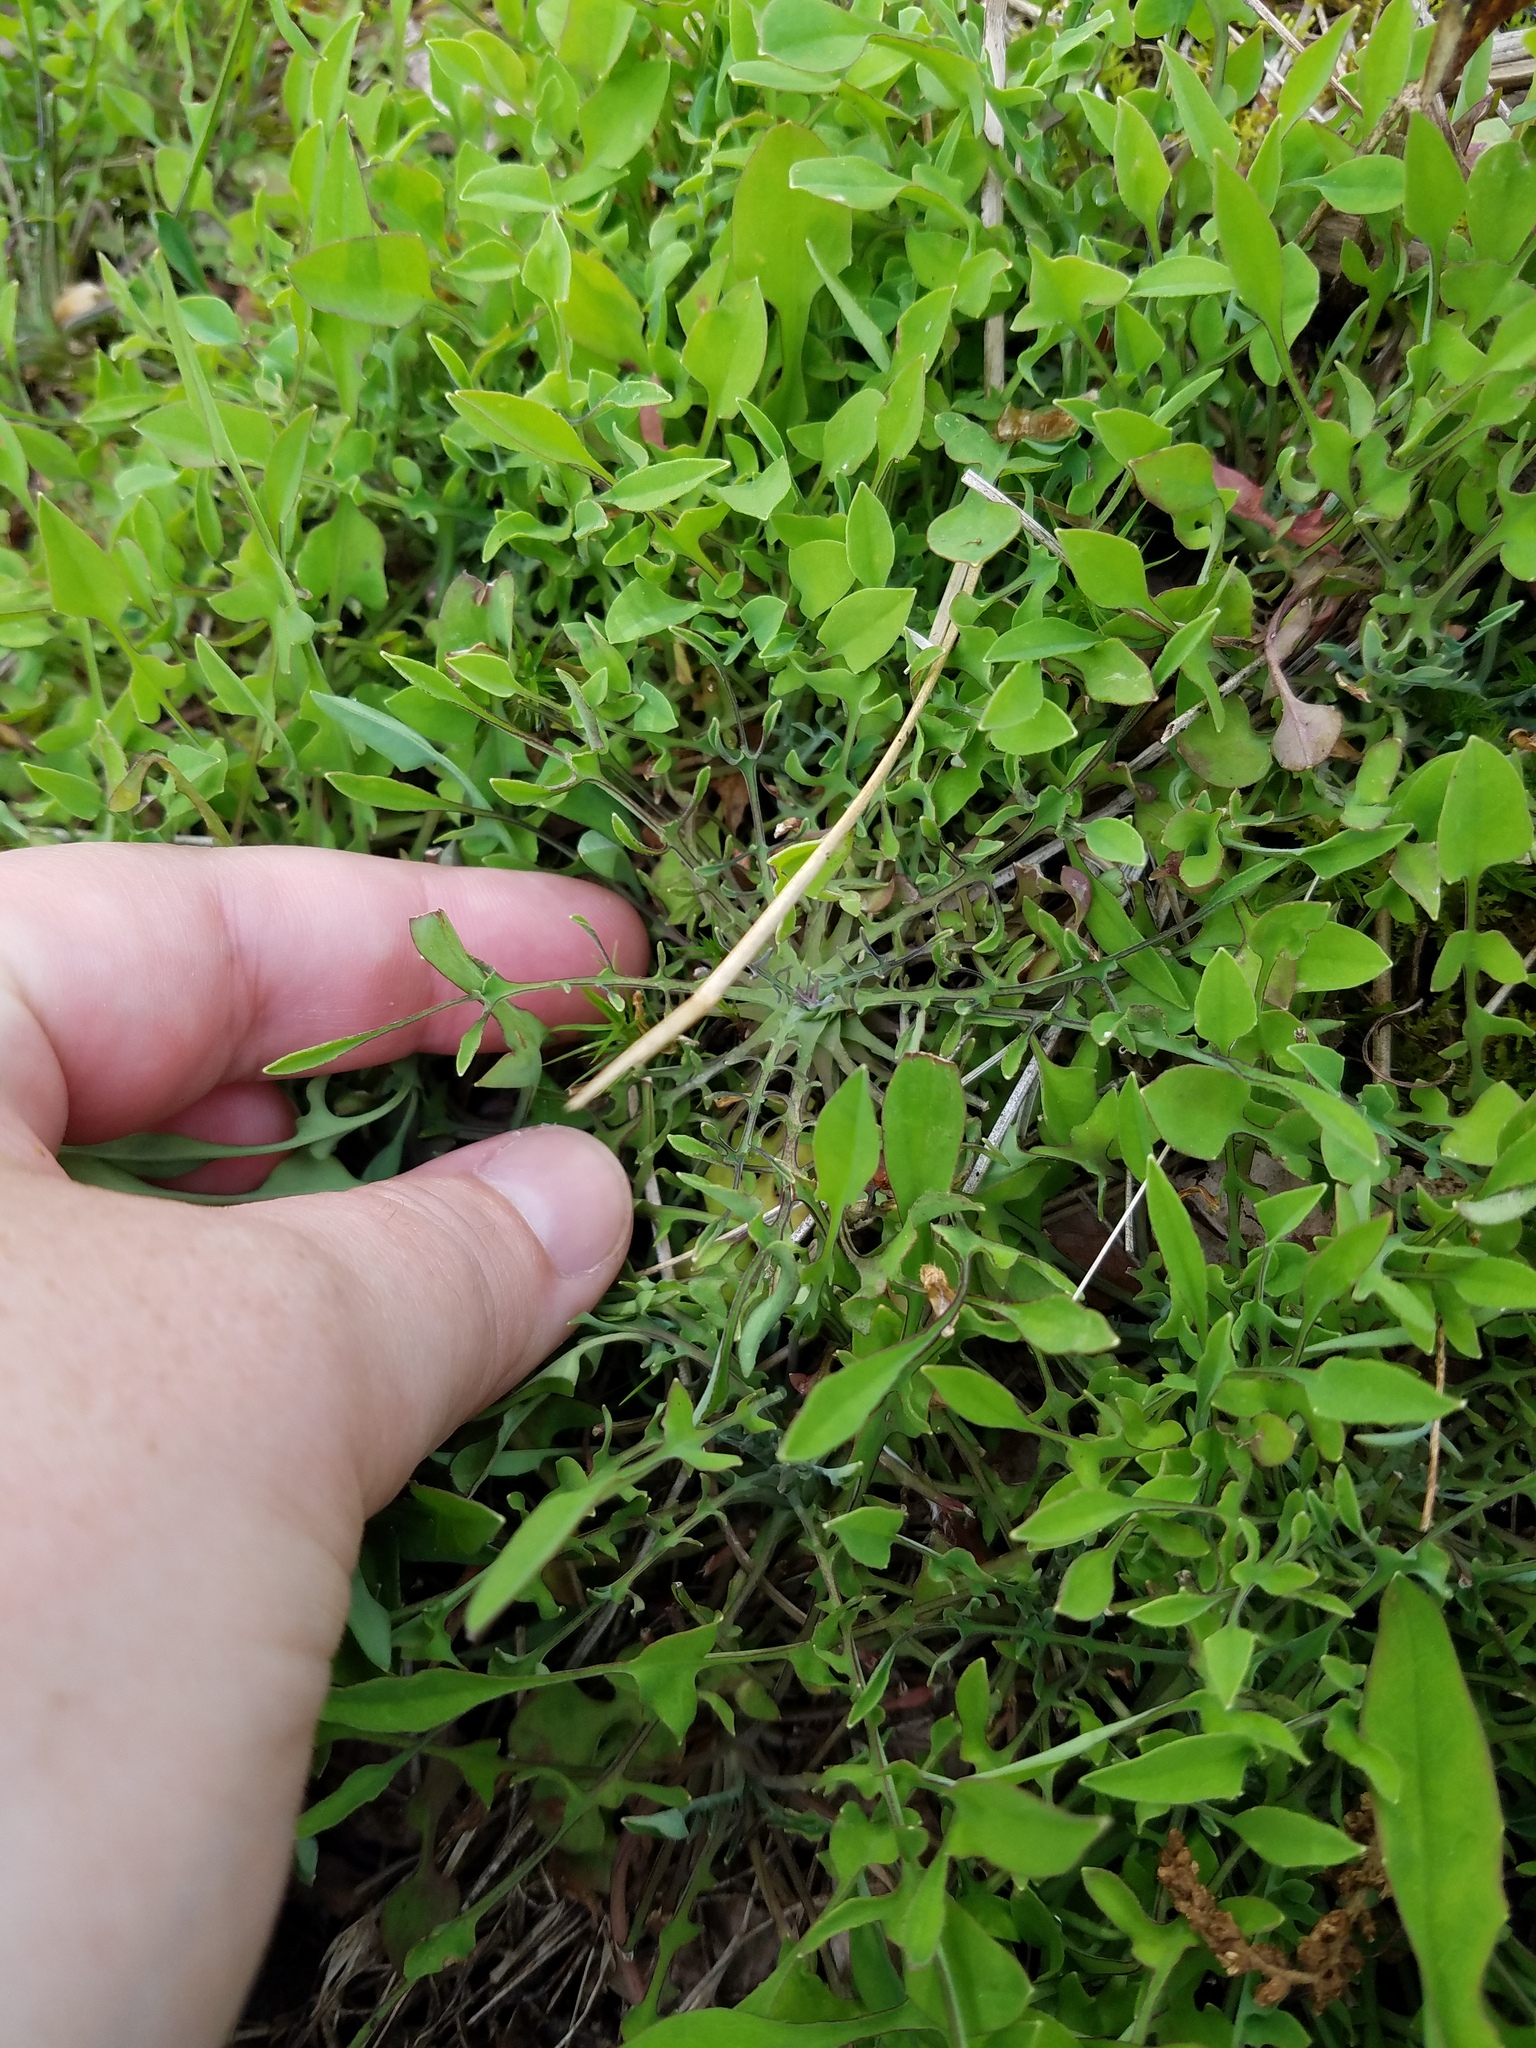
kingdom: Plantae
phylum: Tracheophyta
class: Magnoliopsida
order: Asterales
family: Asteraceae
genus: Krigia
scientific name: Krigia montana
